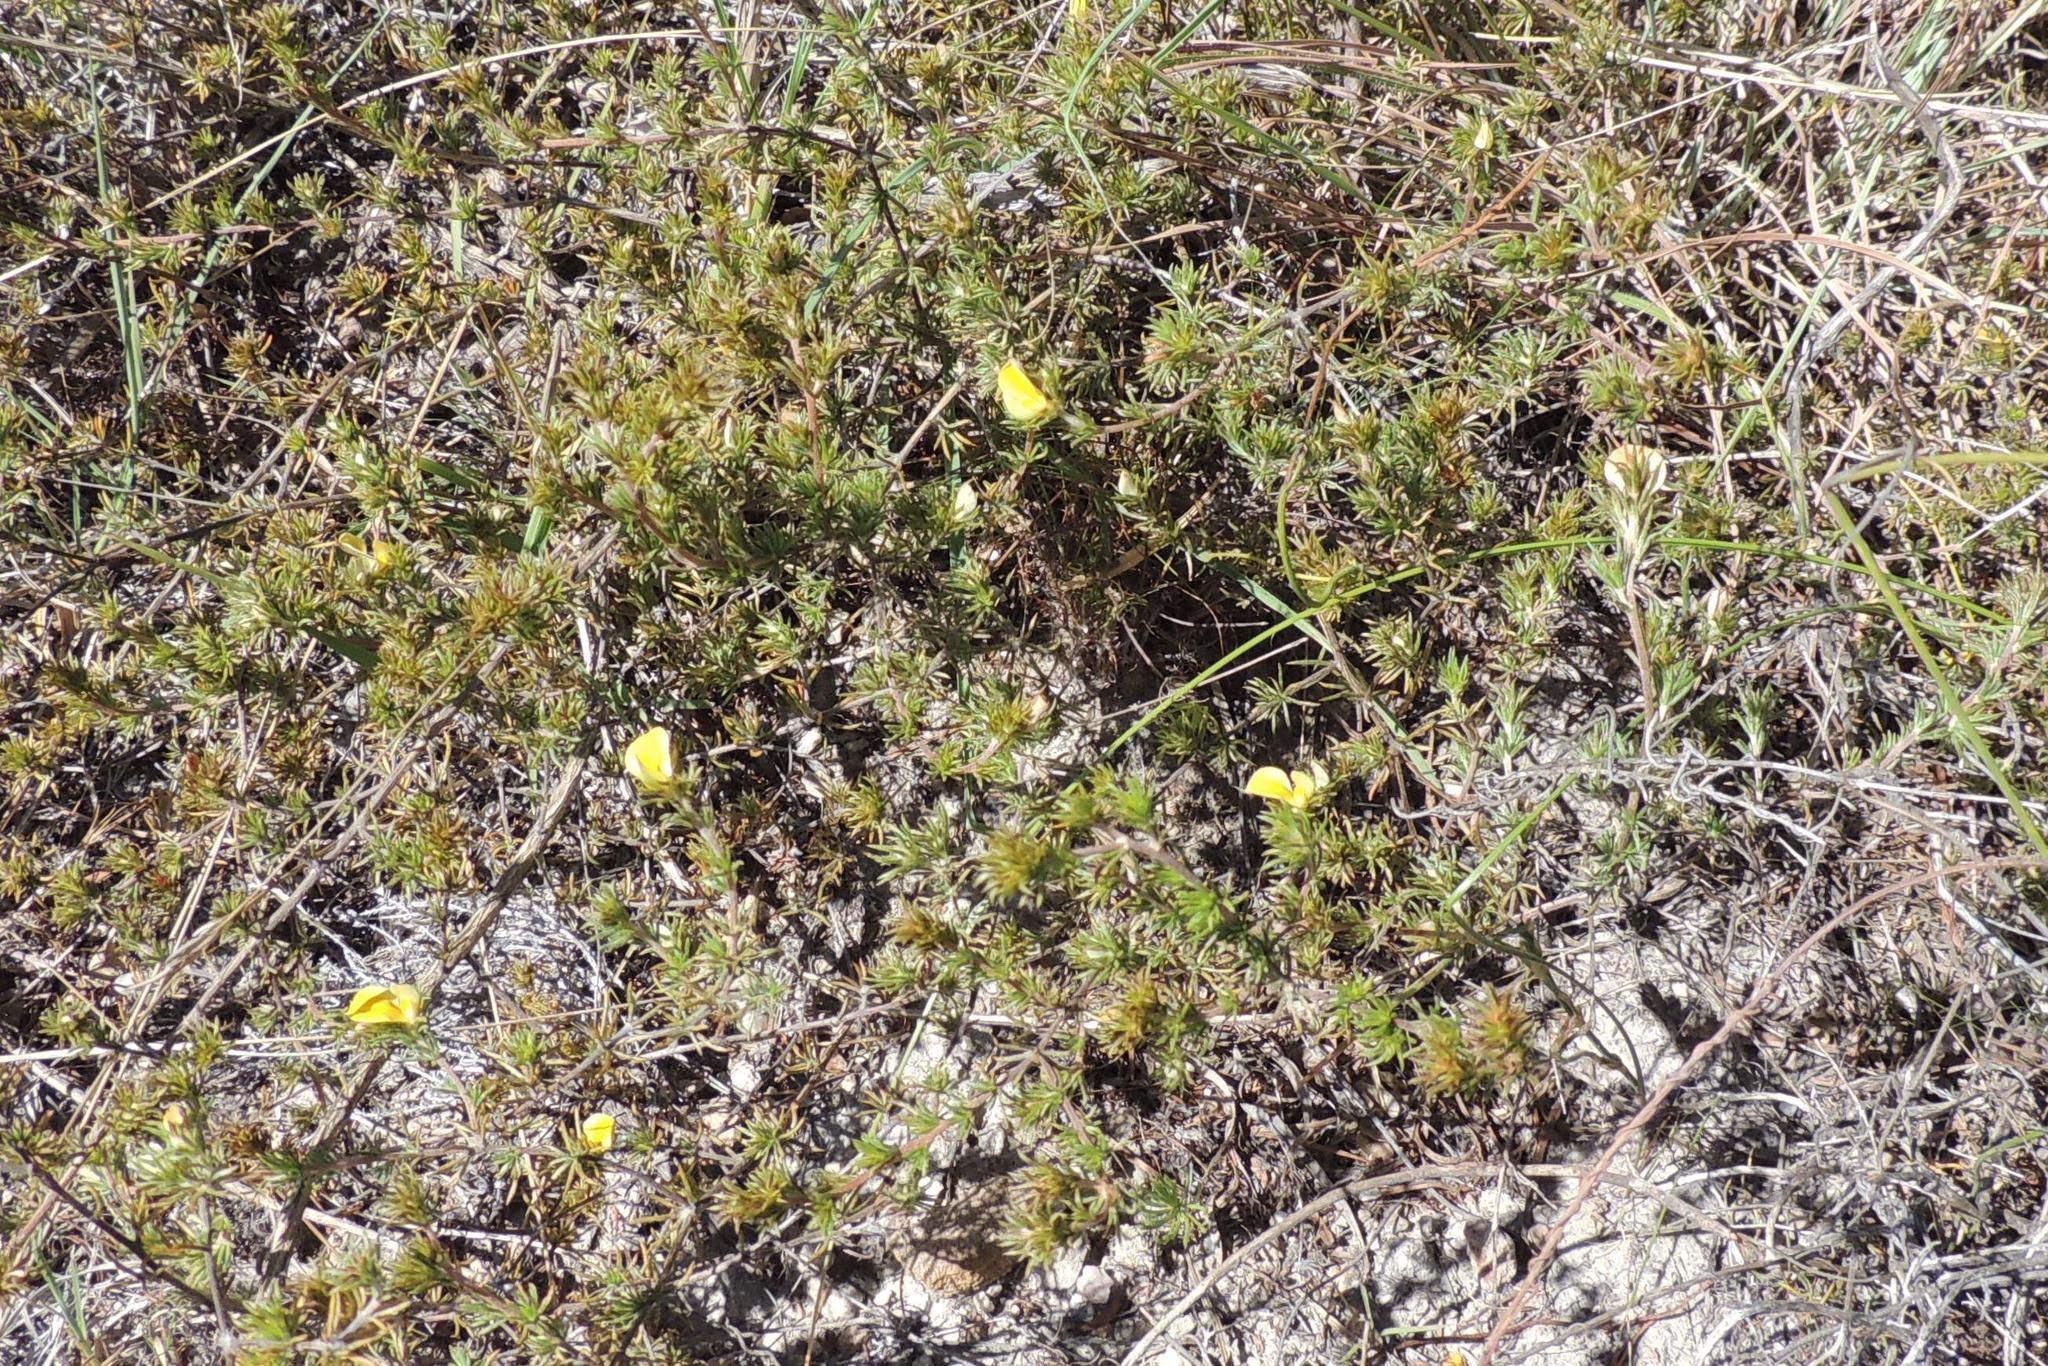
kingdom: Plantae
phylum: Tracheophyta
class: Magnoliopsida
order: Fabales
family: Fabaceae
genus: Aspalathus
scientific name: Aspalathus cliffortioides
